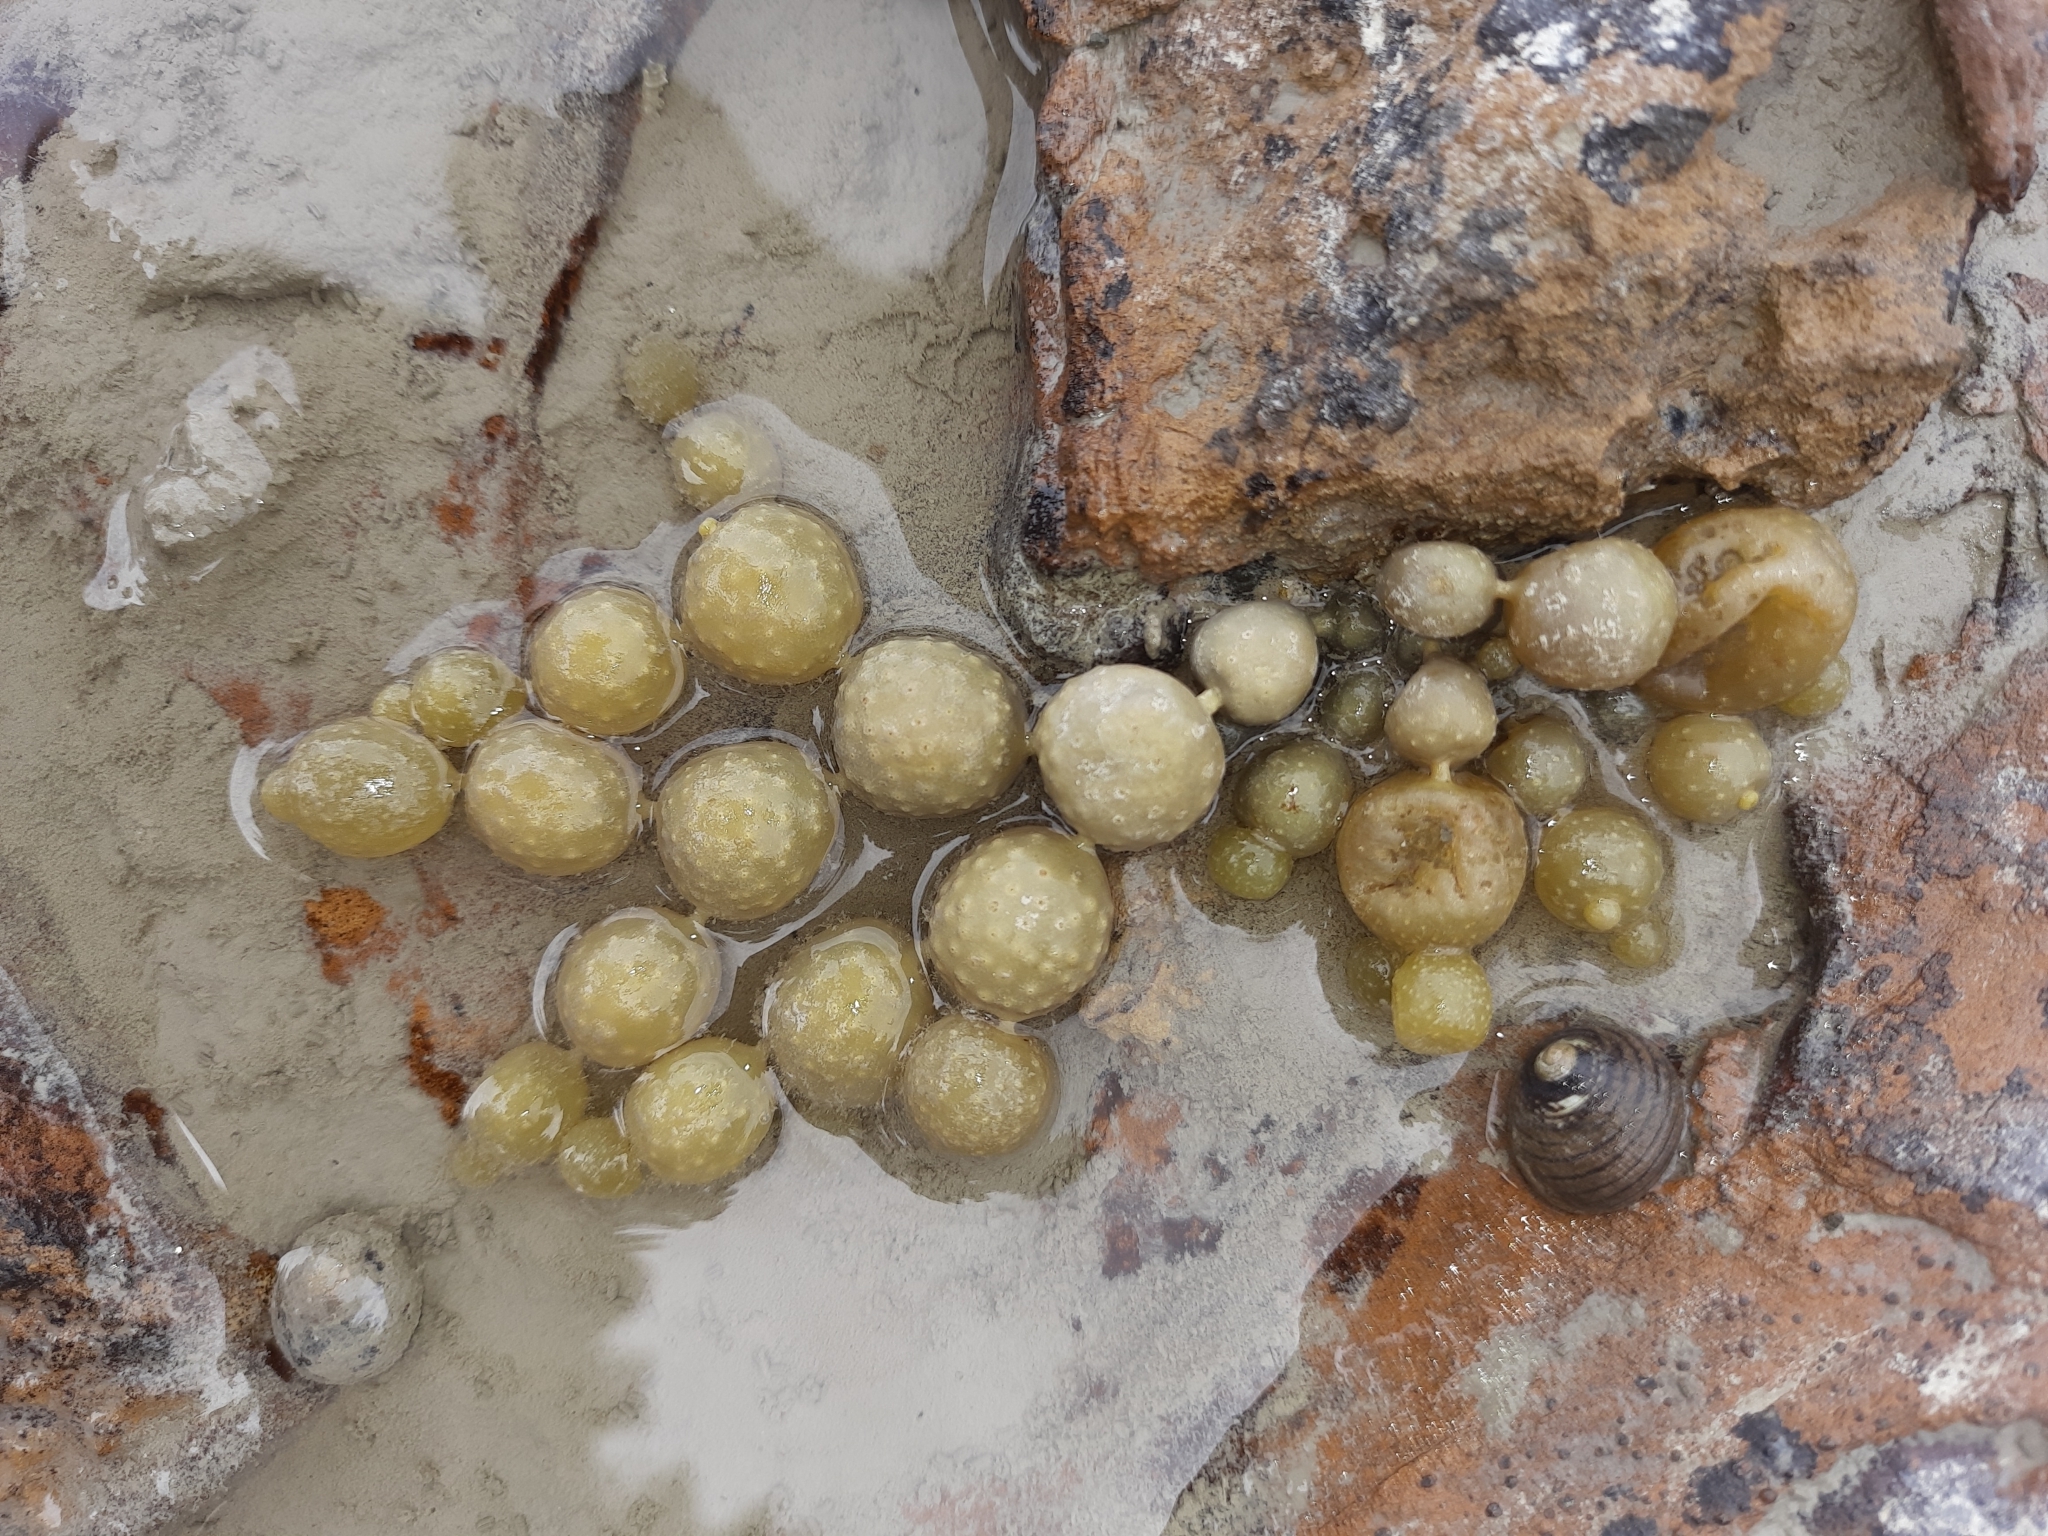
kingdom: Chromista
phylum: Ochrophyta
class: Phaeophyceae
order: Fucales
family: Hormosiraceae
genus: Hormosira
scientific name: Hormosira banksii
